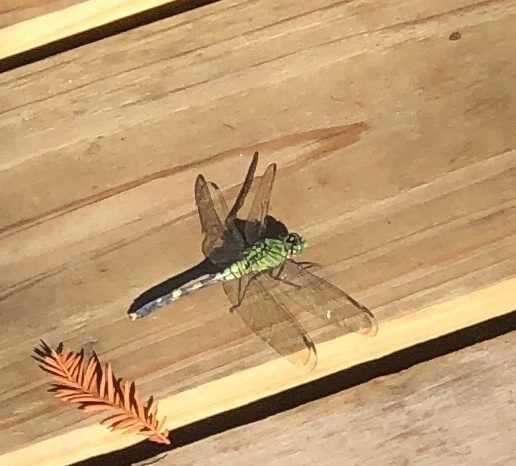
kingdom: Animalia
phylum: Arthropoda
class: Insecta
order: Odonata
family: Libellulidae
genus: Erythemis
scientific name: Erythemis simplicicollis
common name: Eastern pondhawk
